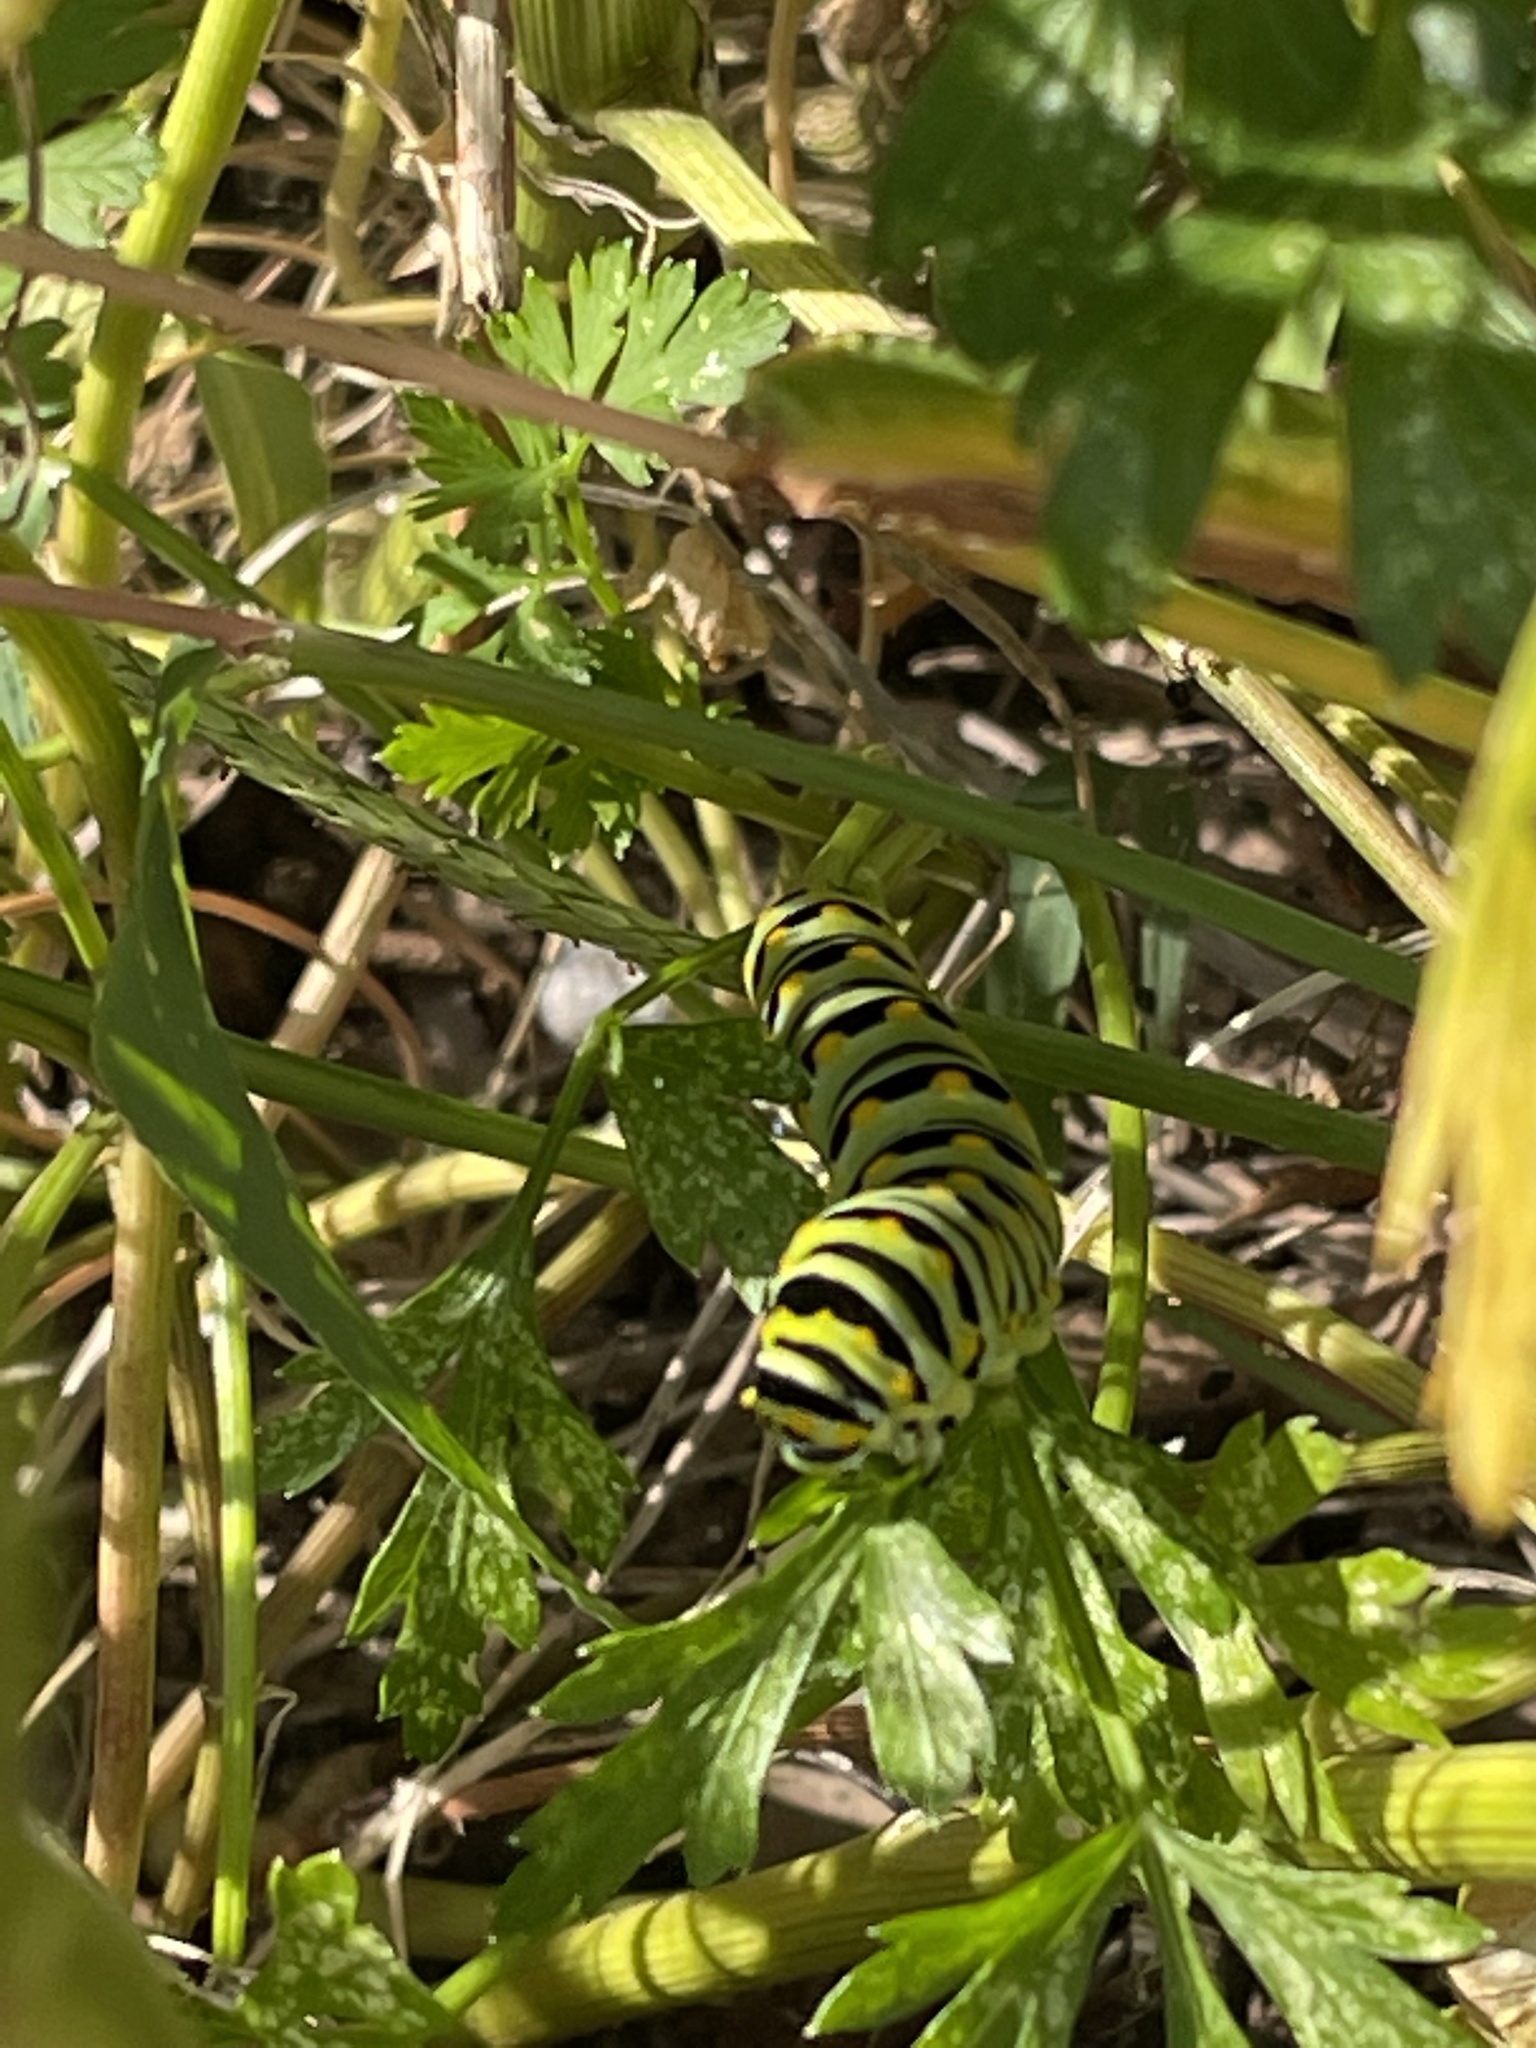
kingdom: Animalia
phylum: Arthropoda
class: Insecta
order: Lepidoptera
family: Papilionidae
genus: Papilio
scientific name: Papilio polyxenes
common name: Black swallowtail
